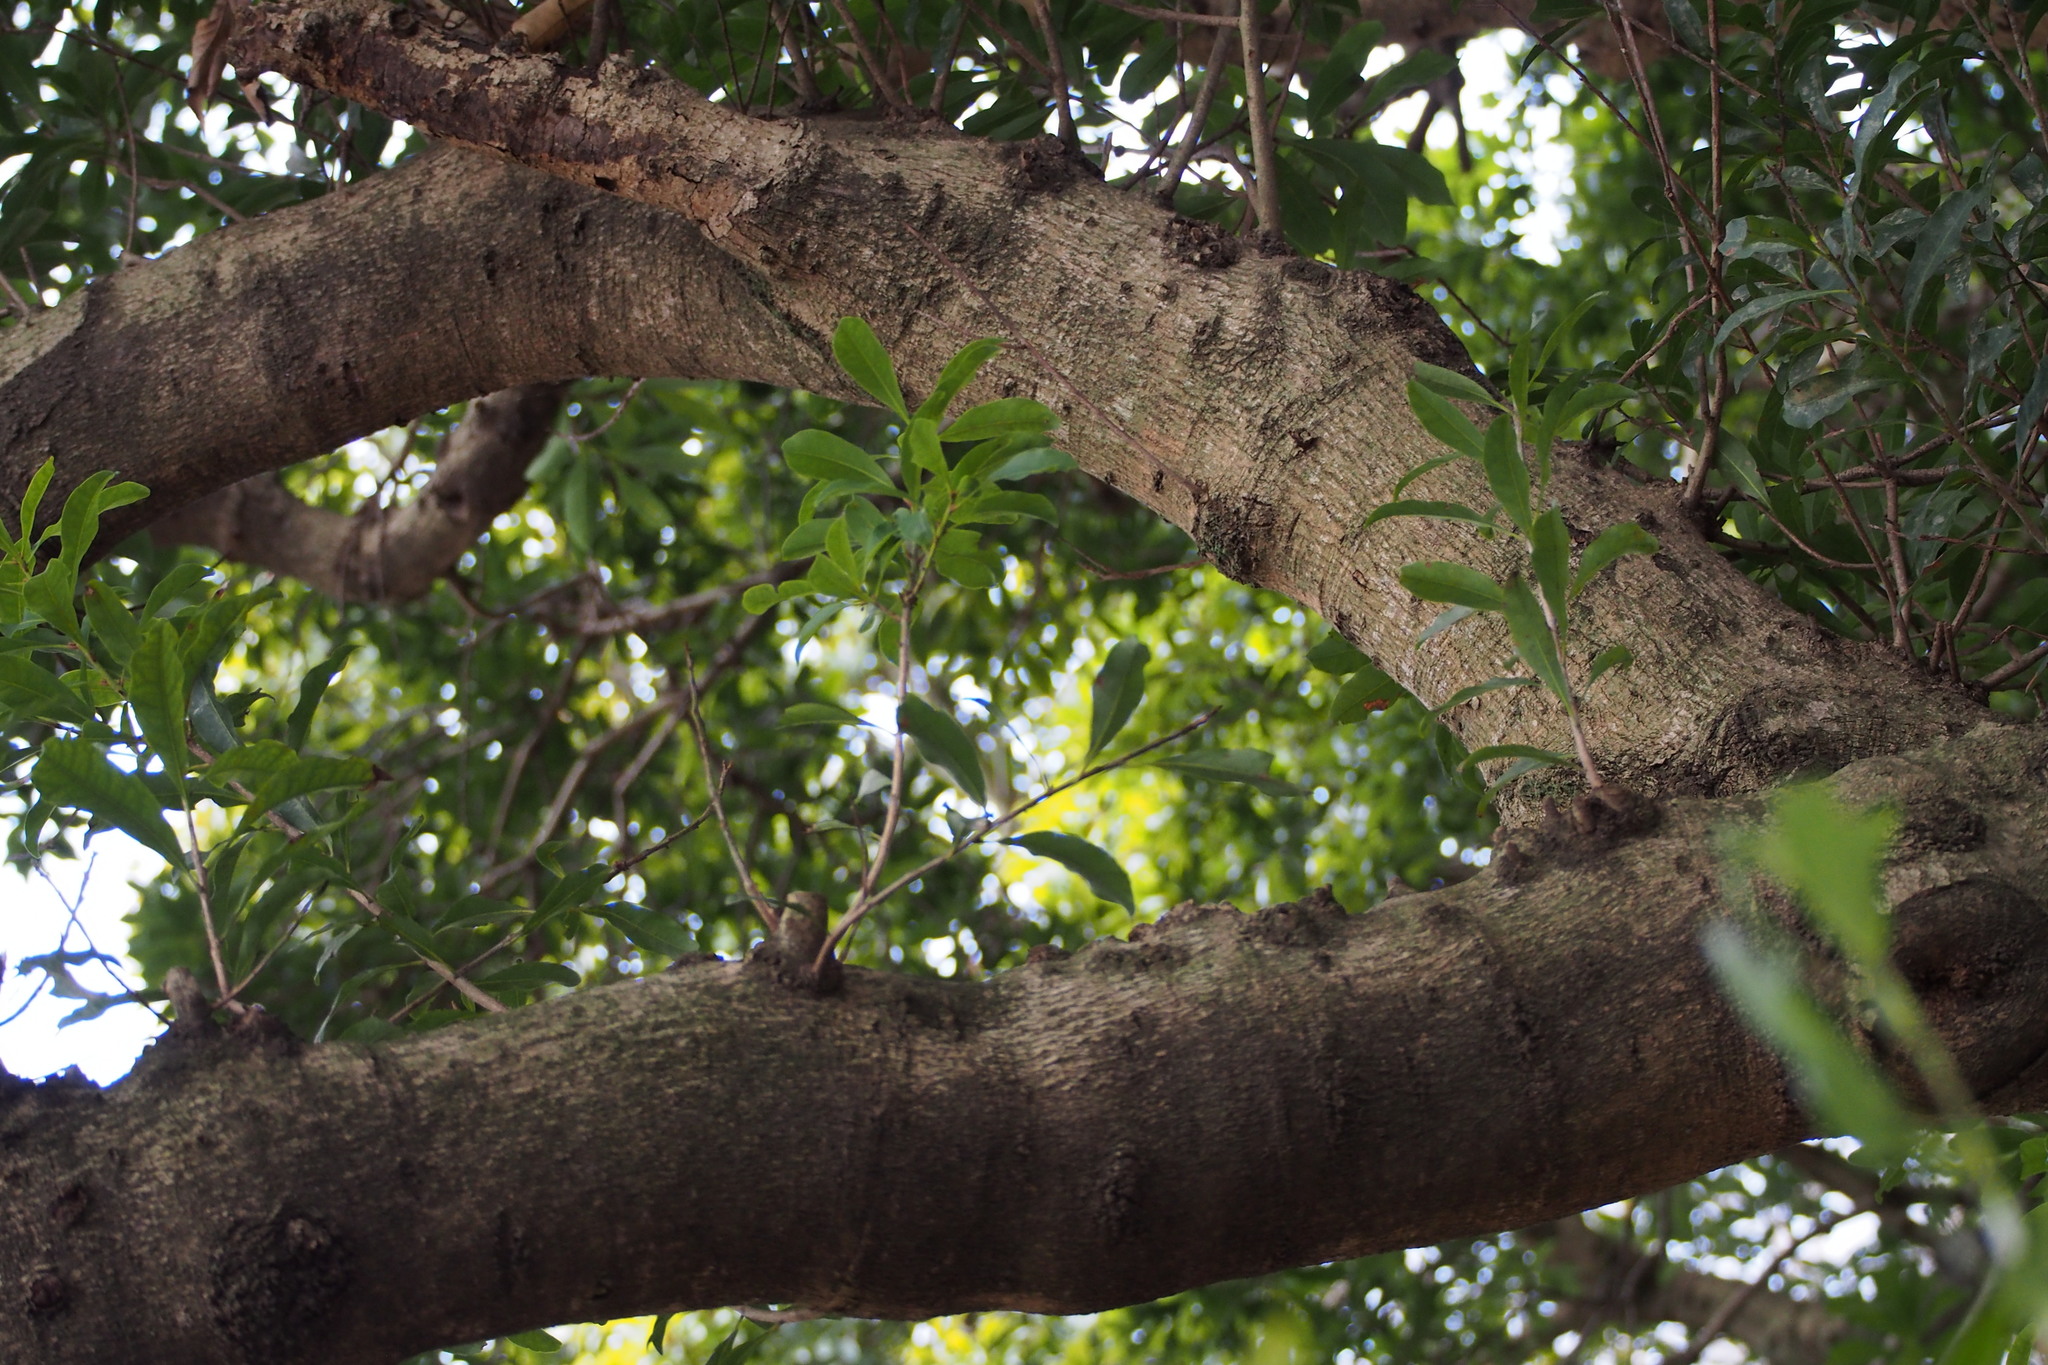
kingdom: Plantae
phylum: Tracheophyta
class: Magnoliopsida
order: Fagales
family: Myricaceae
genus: Morella
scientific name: Morella rubra
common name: Red bayberry
